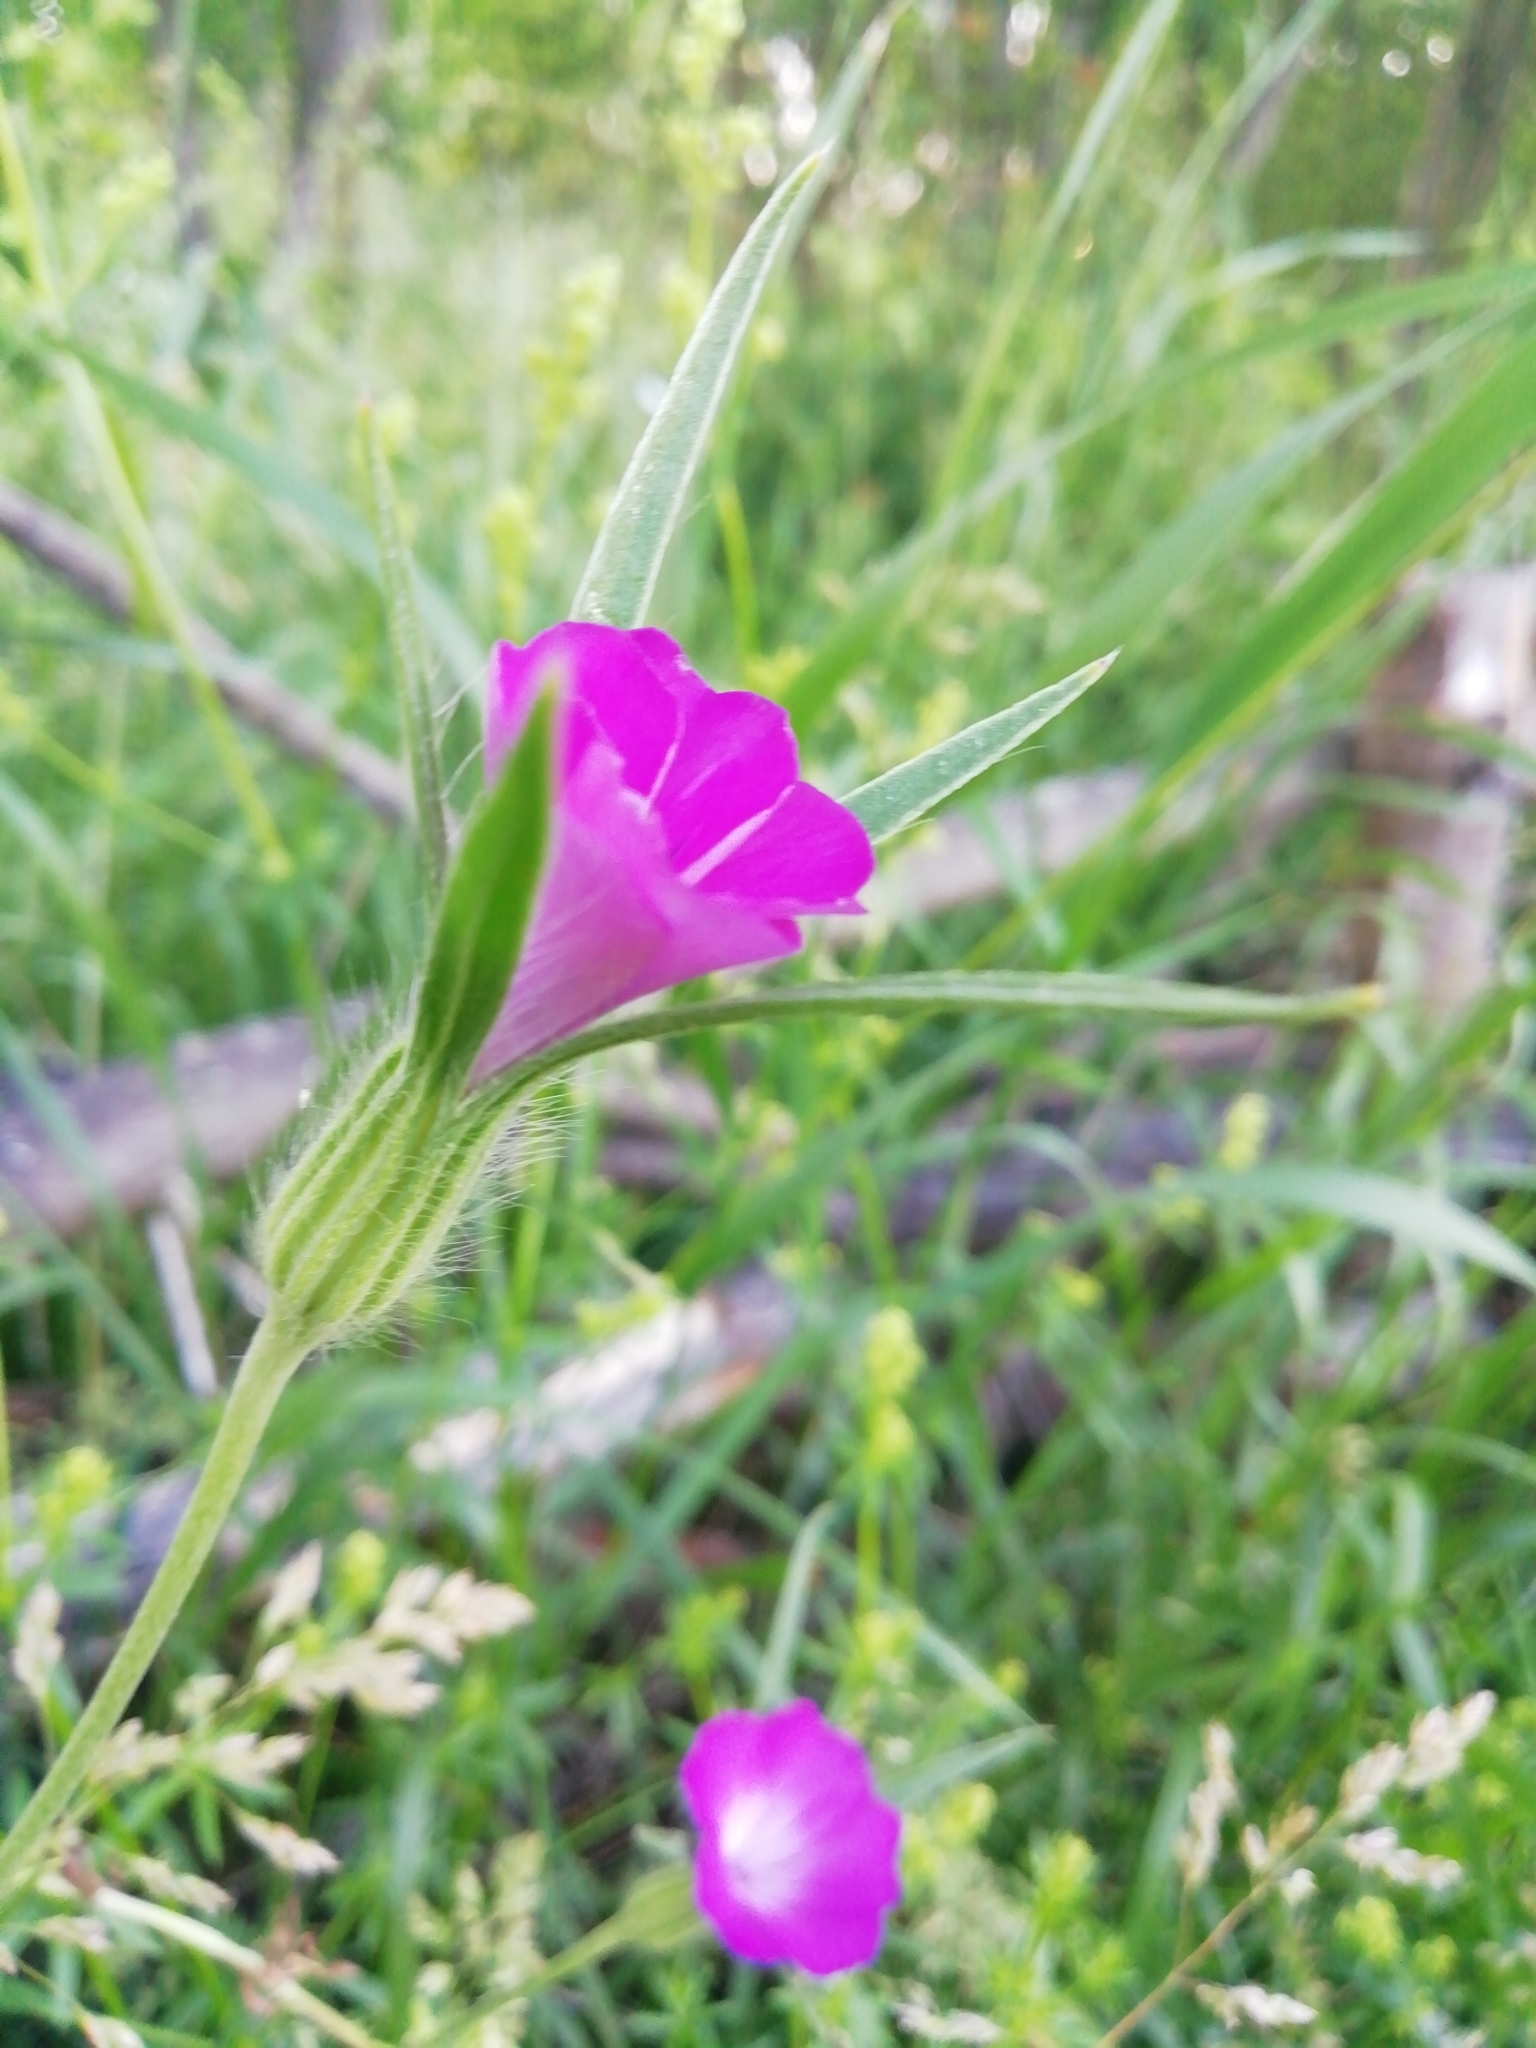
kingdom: Plantae
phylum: Tracheophyta
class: Magnoliopsida
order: Caryophyllales
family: Caryophyllaceae
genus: Agrostemma
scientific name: Agrostemma githago
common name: Common corncockle
